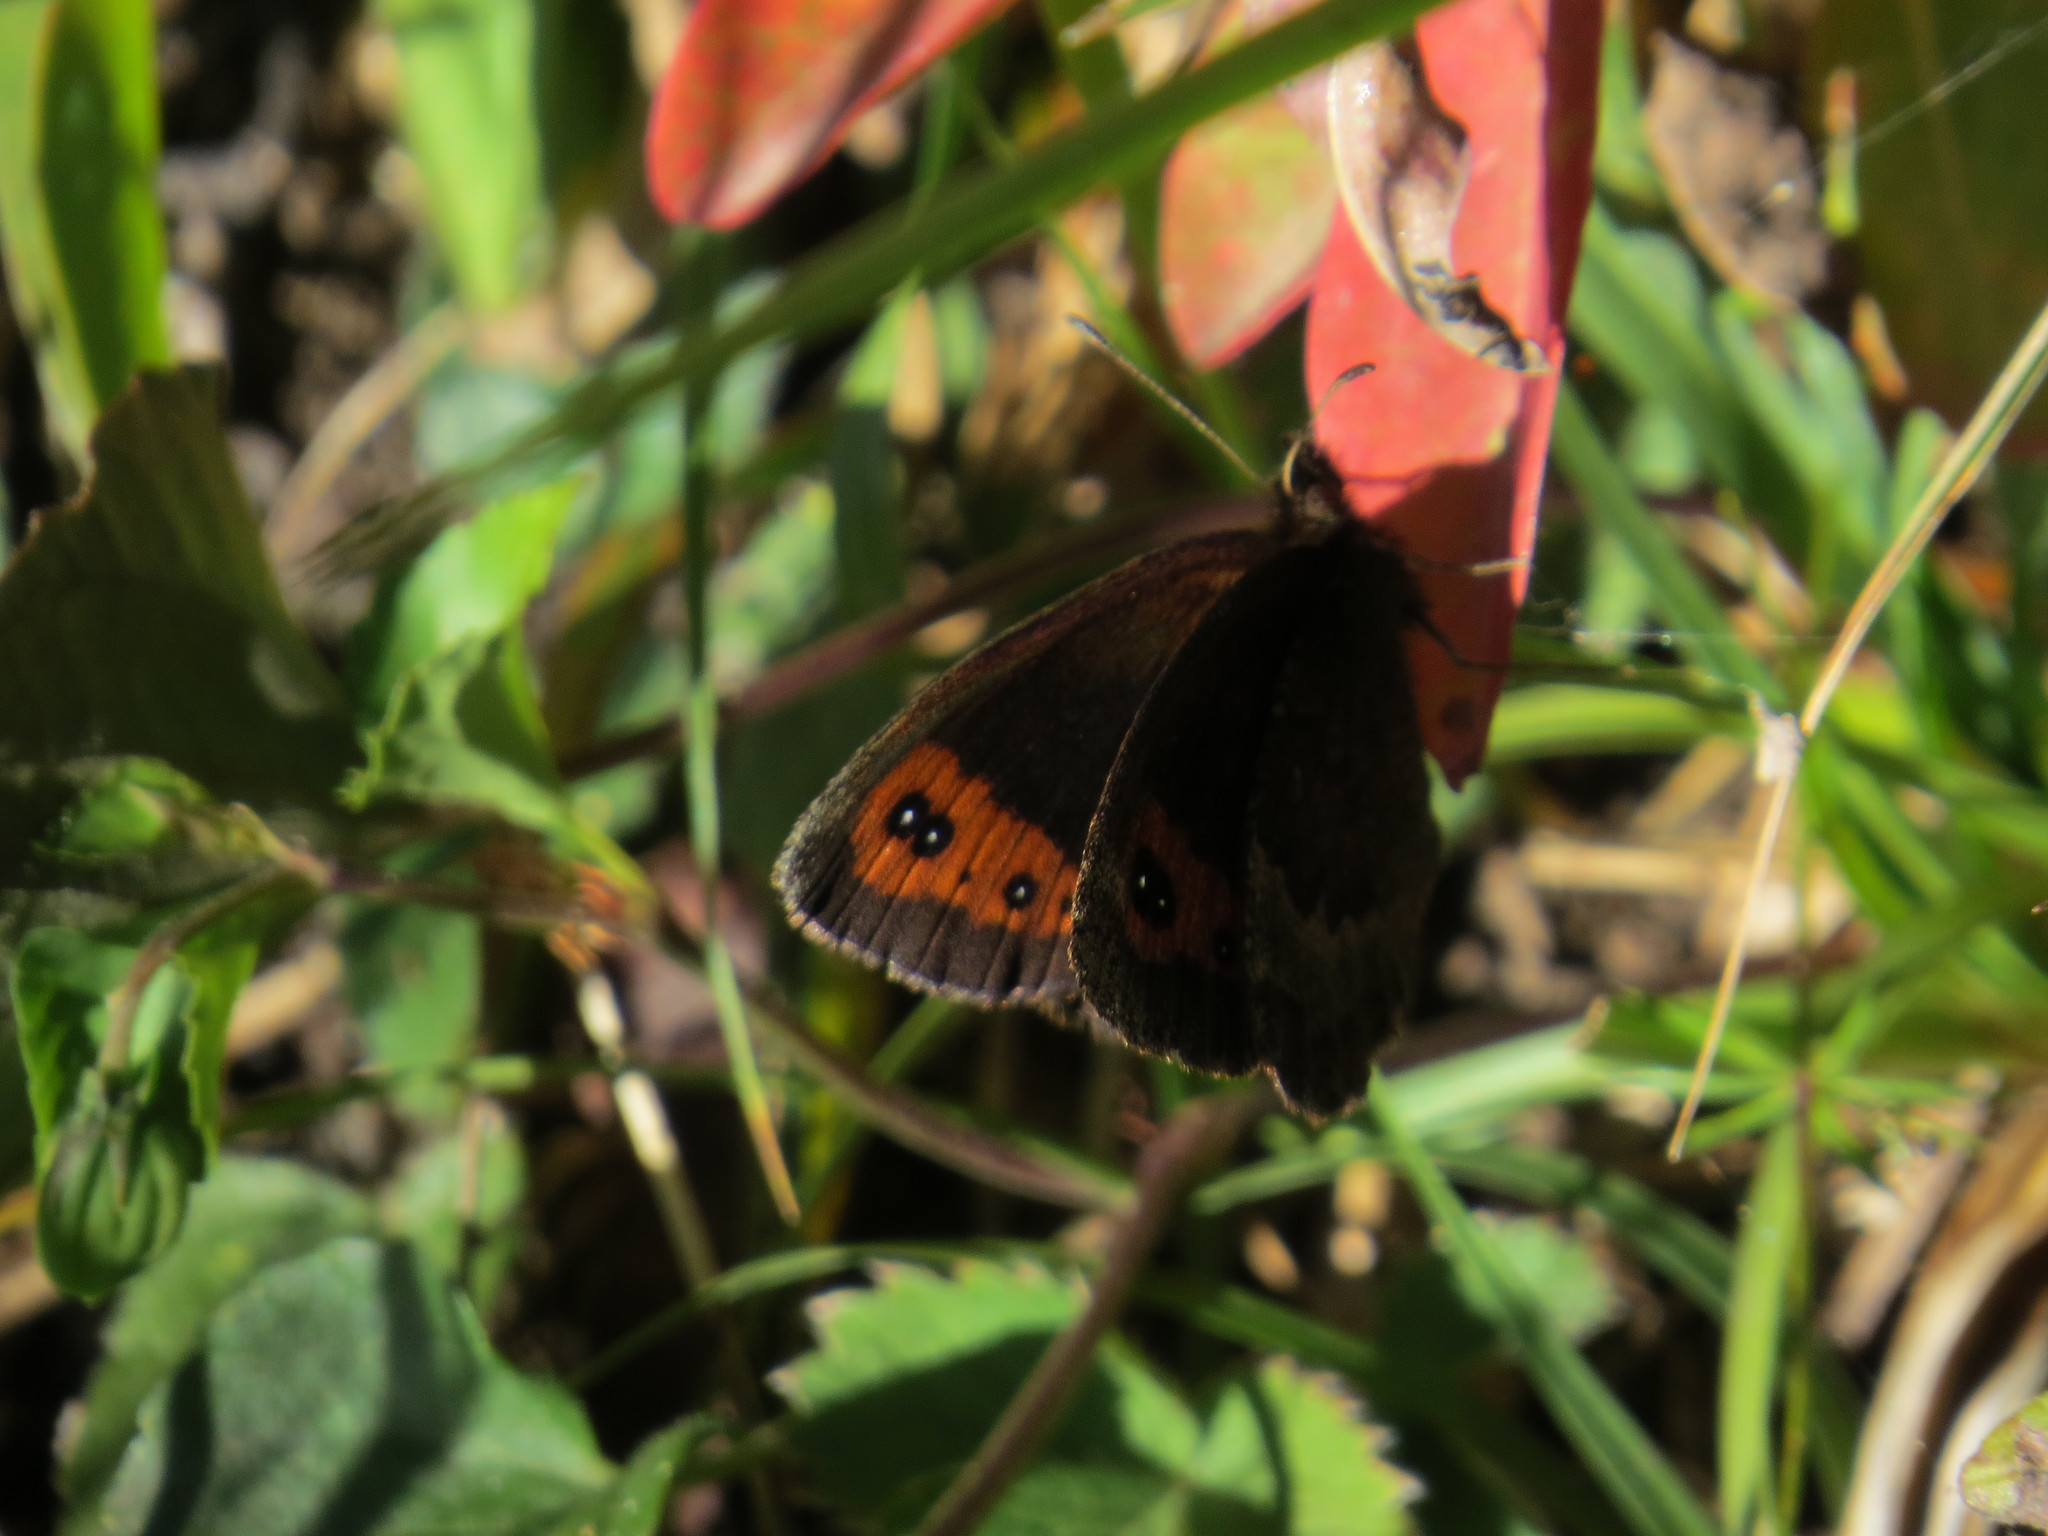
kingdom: Animalia
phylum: Arthropoda
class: Insecta
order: Lepidoptera
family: Nymphalidae
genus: Erebia
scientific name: Erebia neoridas
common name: Autumn ringlet
